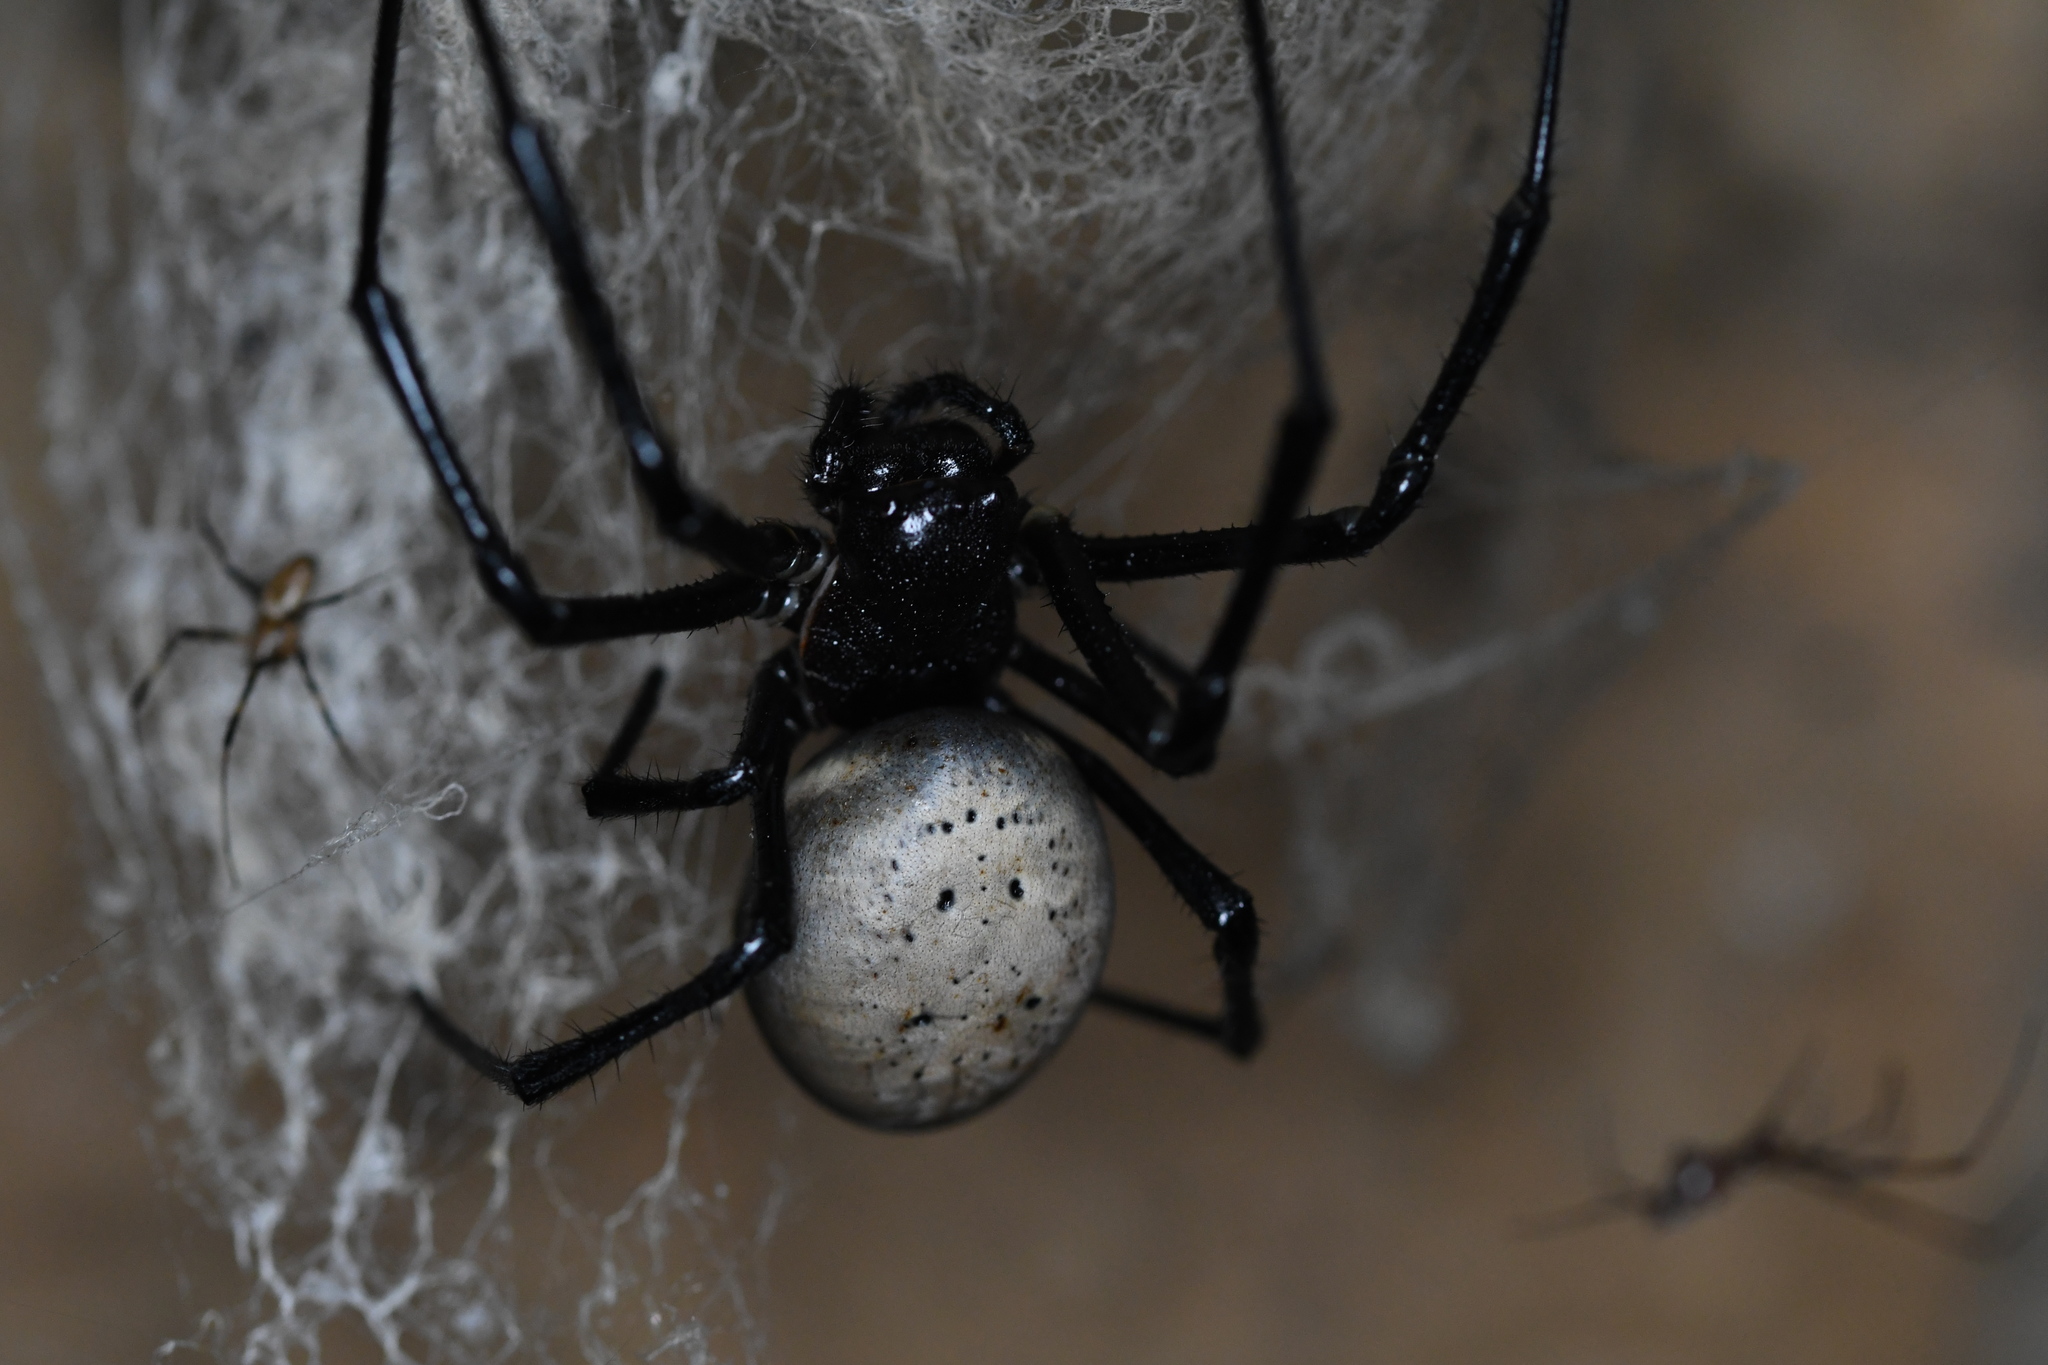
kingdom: Animalia
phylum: Arthropoda
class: Arachnida
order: Araneae
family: Araneidae
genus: Nephilingis
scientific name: Nephilingis livida
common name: Madagascar hermit spider
